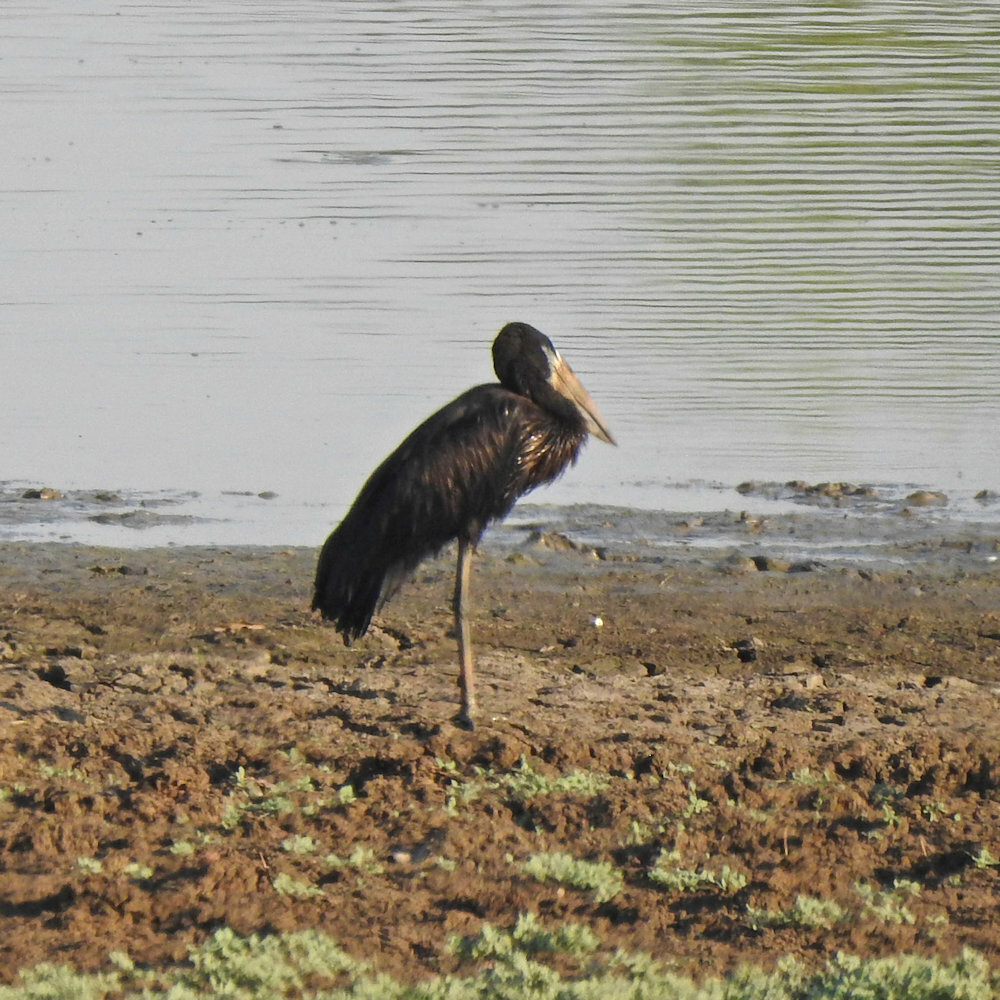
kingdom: Animalia
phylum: Chordata
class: Aves
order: Ciconiiformes
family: Ciconiidae
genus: Anastomus
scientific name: Anastomus lamelligerus
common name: African openbill
